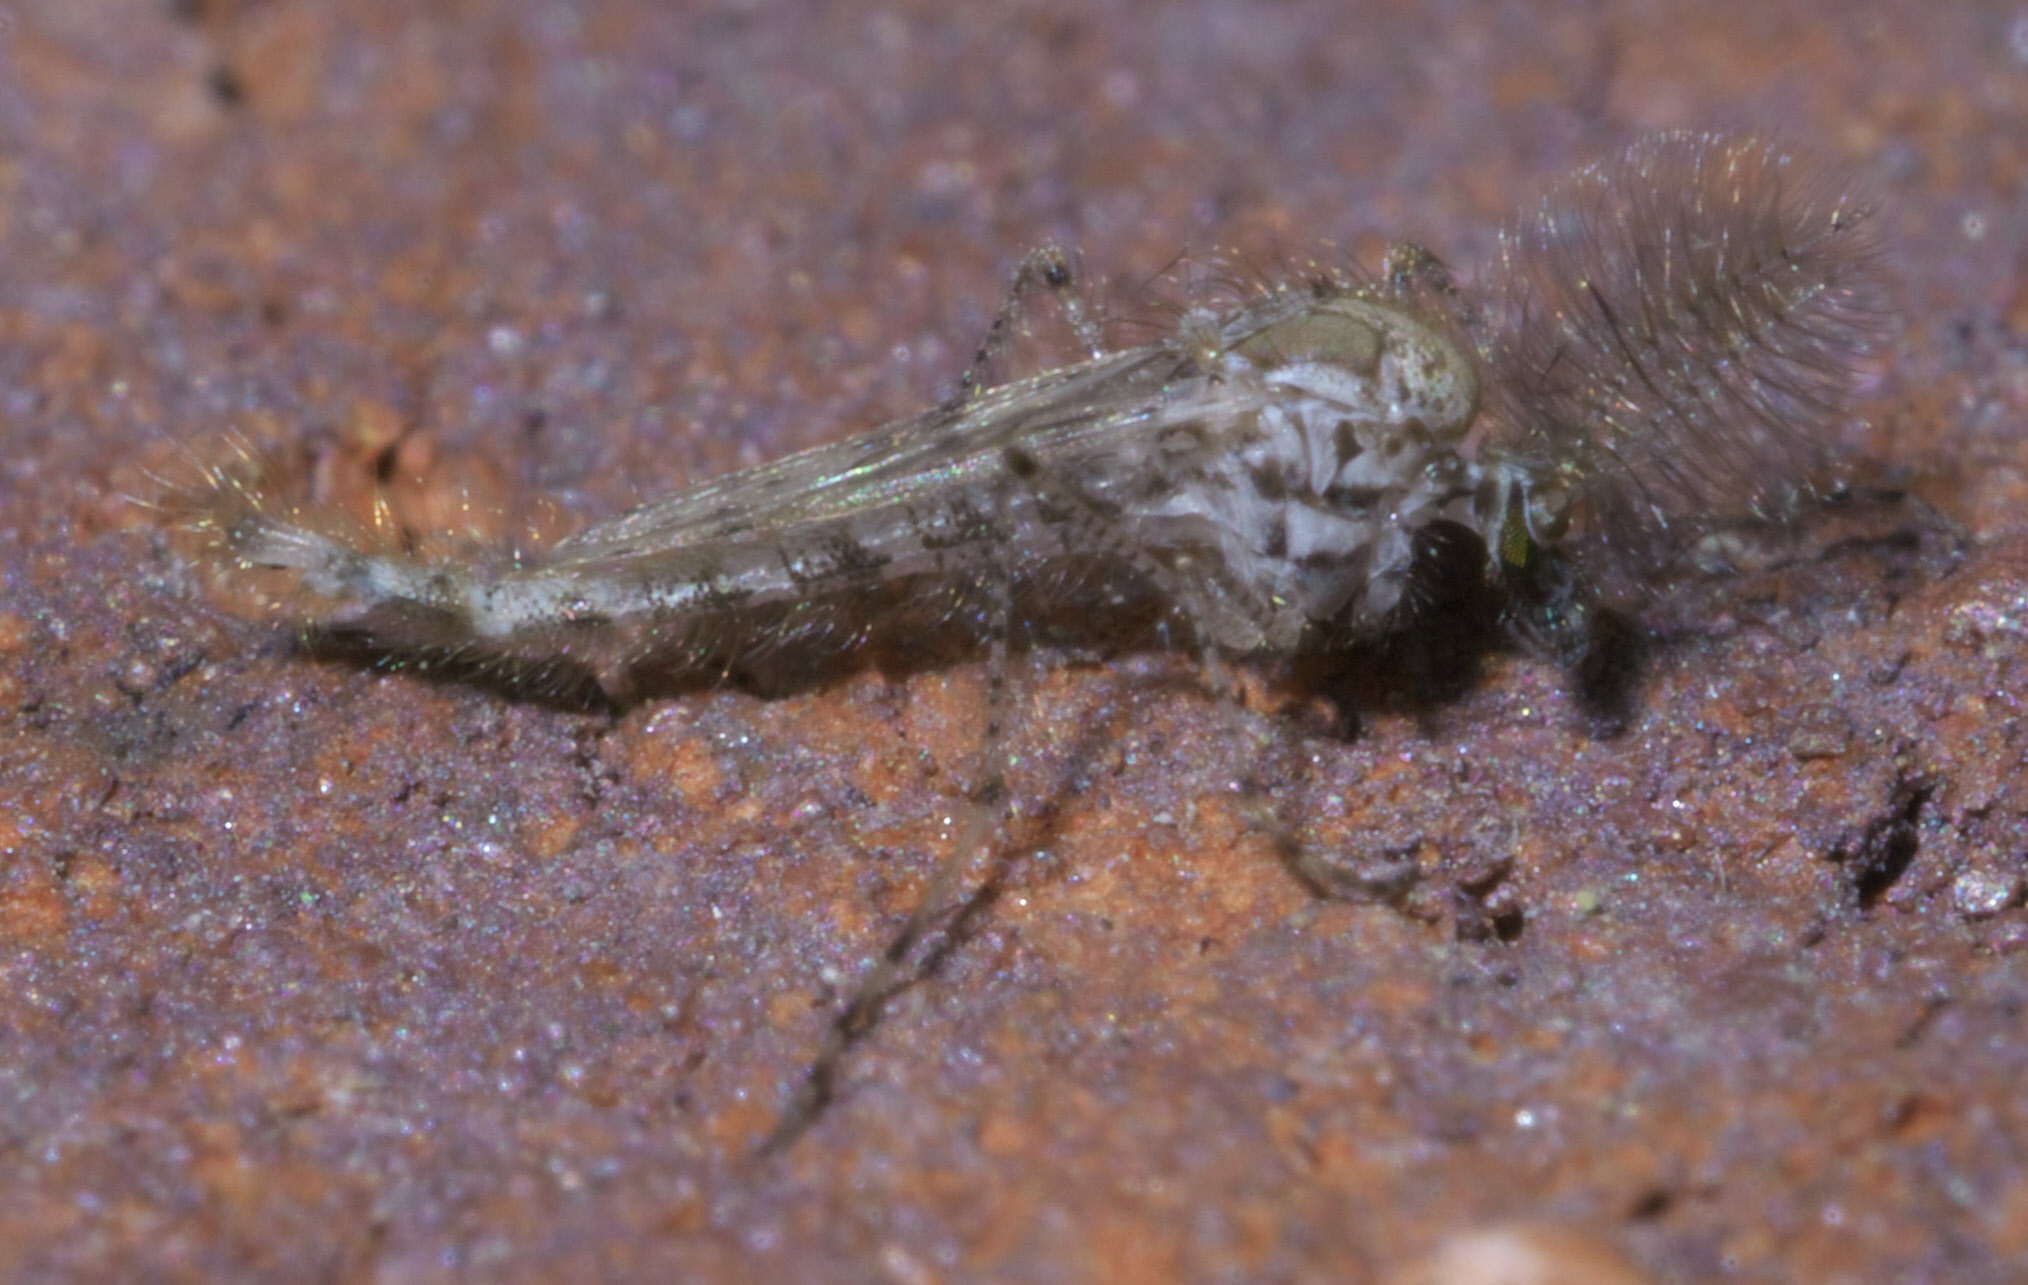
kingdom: Animalia
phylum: Arthropoda
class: Insecta
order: Diptera
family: Chaoboridae
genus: Chaoborus
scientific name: Chaoborus punctipennis
